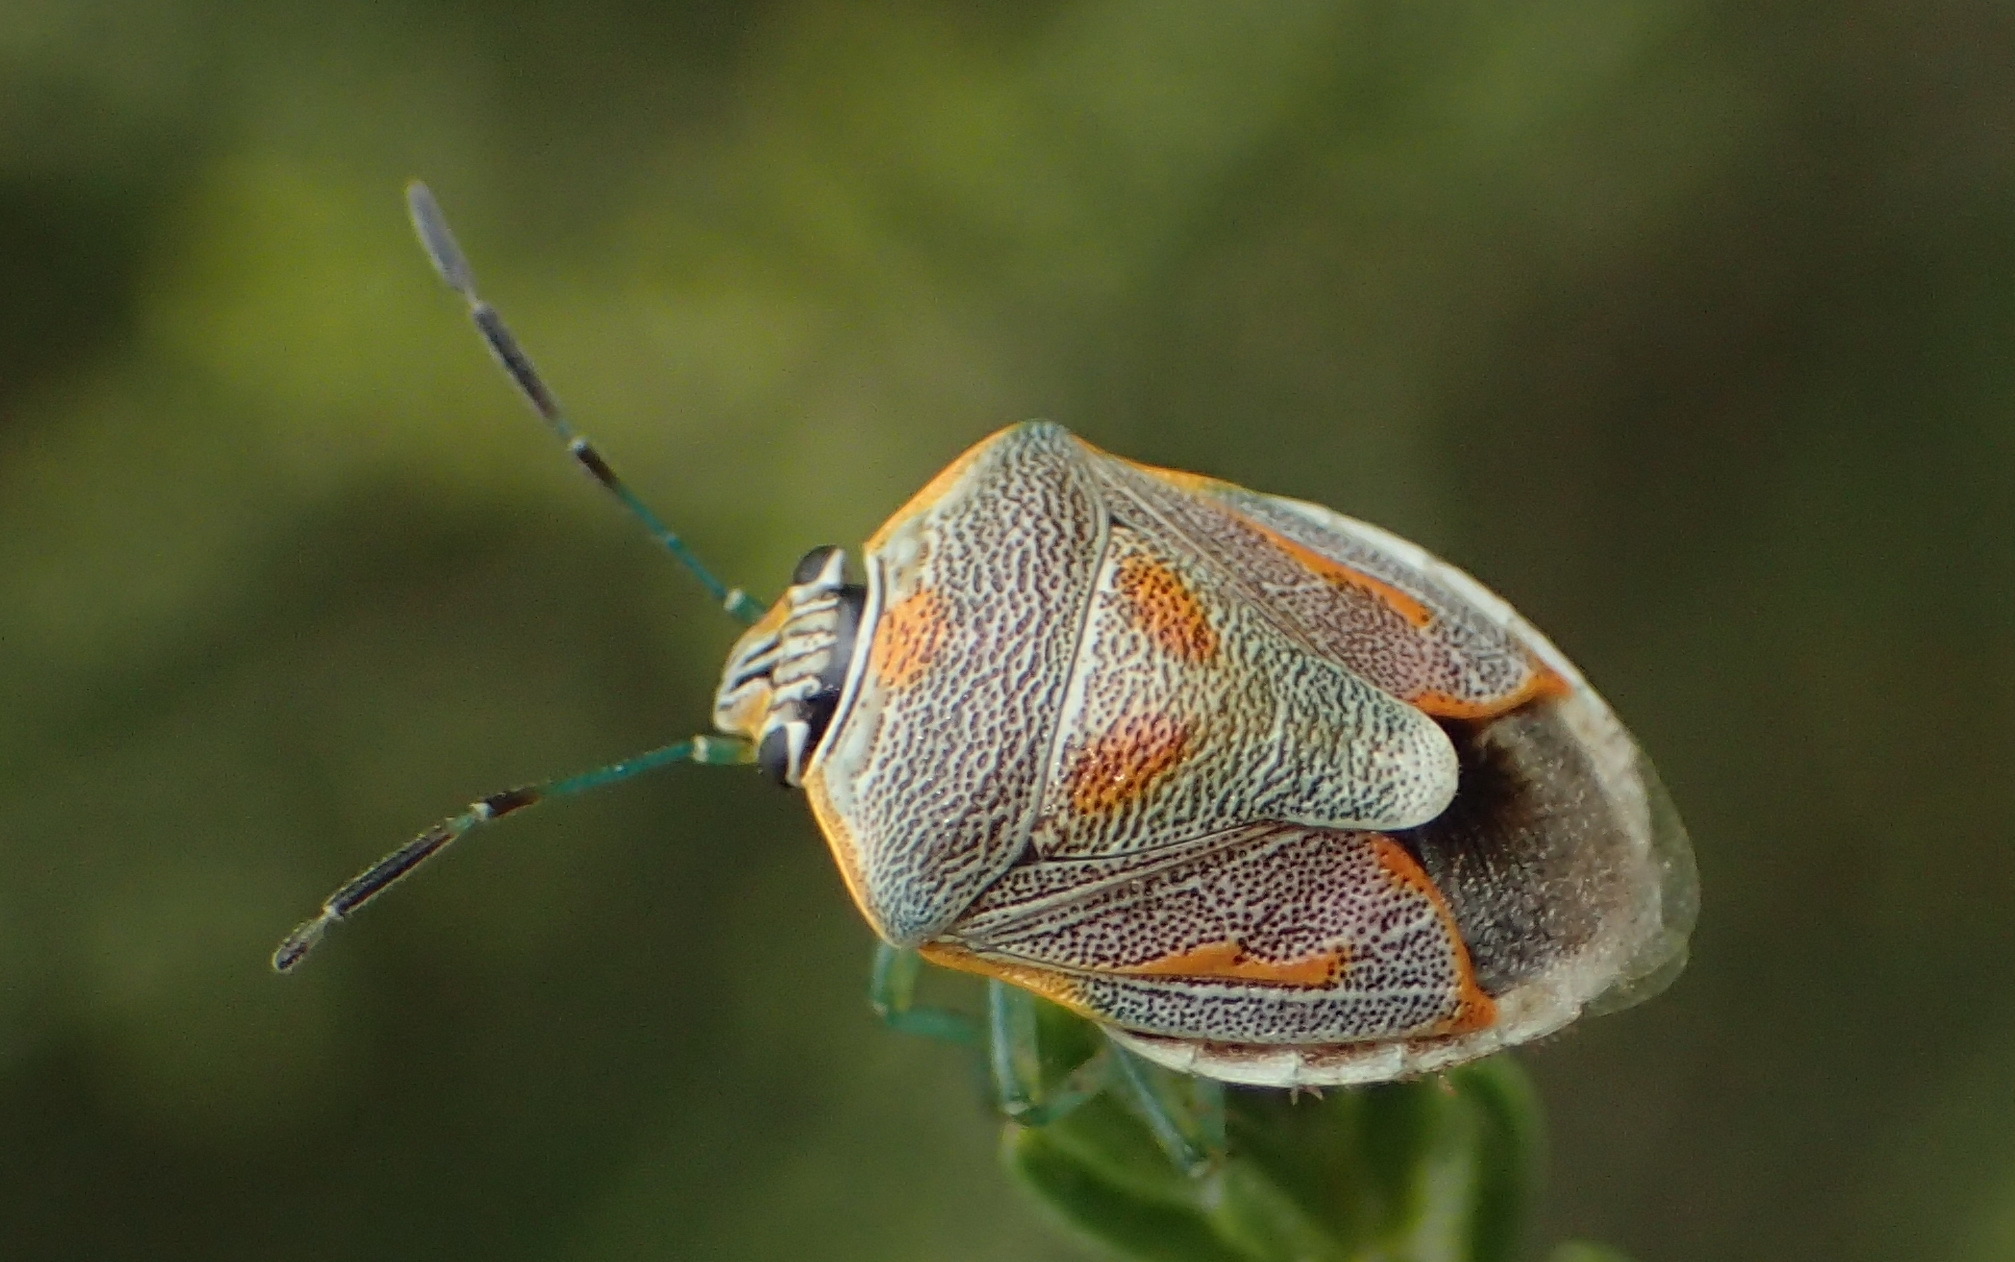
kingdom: Animalia
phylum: Arthropoda
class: Insecta
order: Hemiptera
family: Pentatomidae
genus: Antestiopsis
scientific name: Antestiopsis thunbergii
